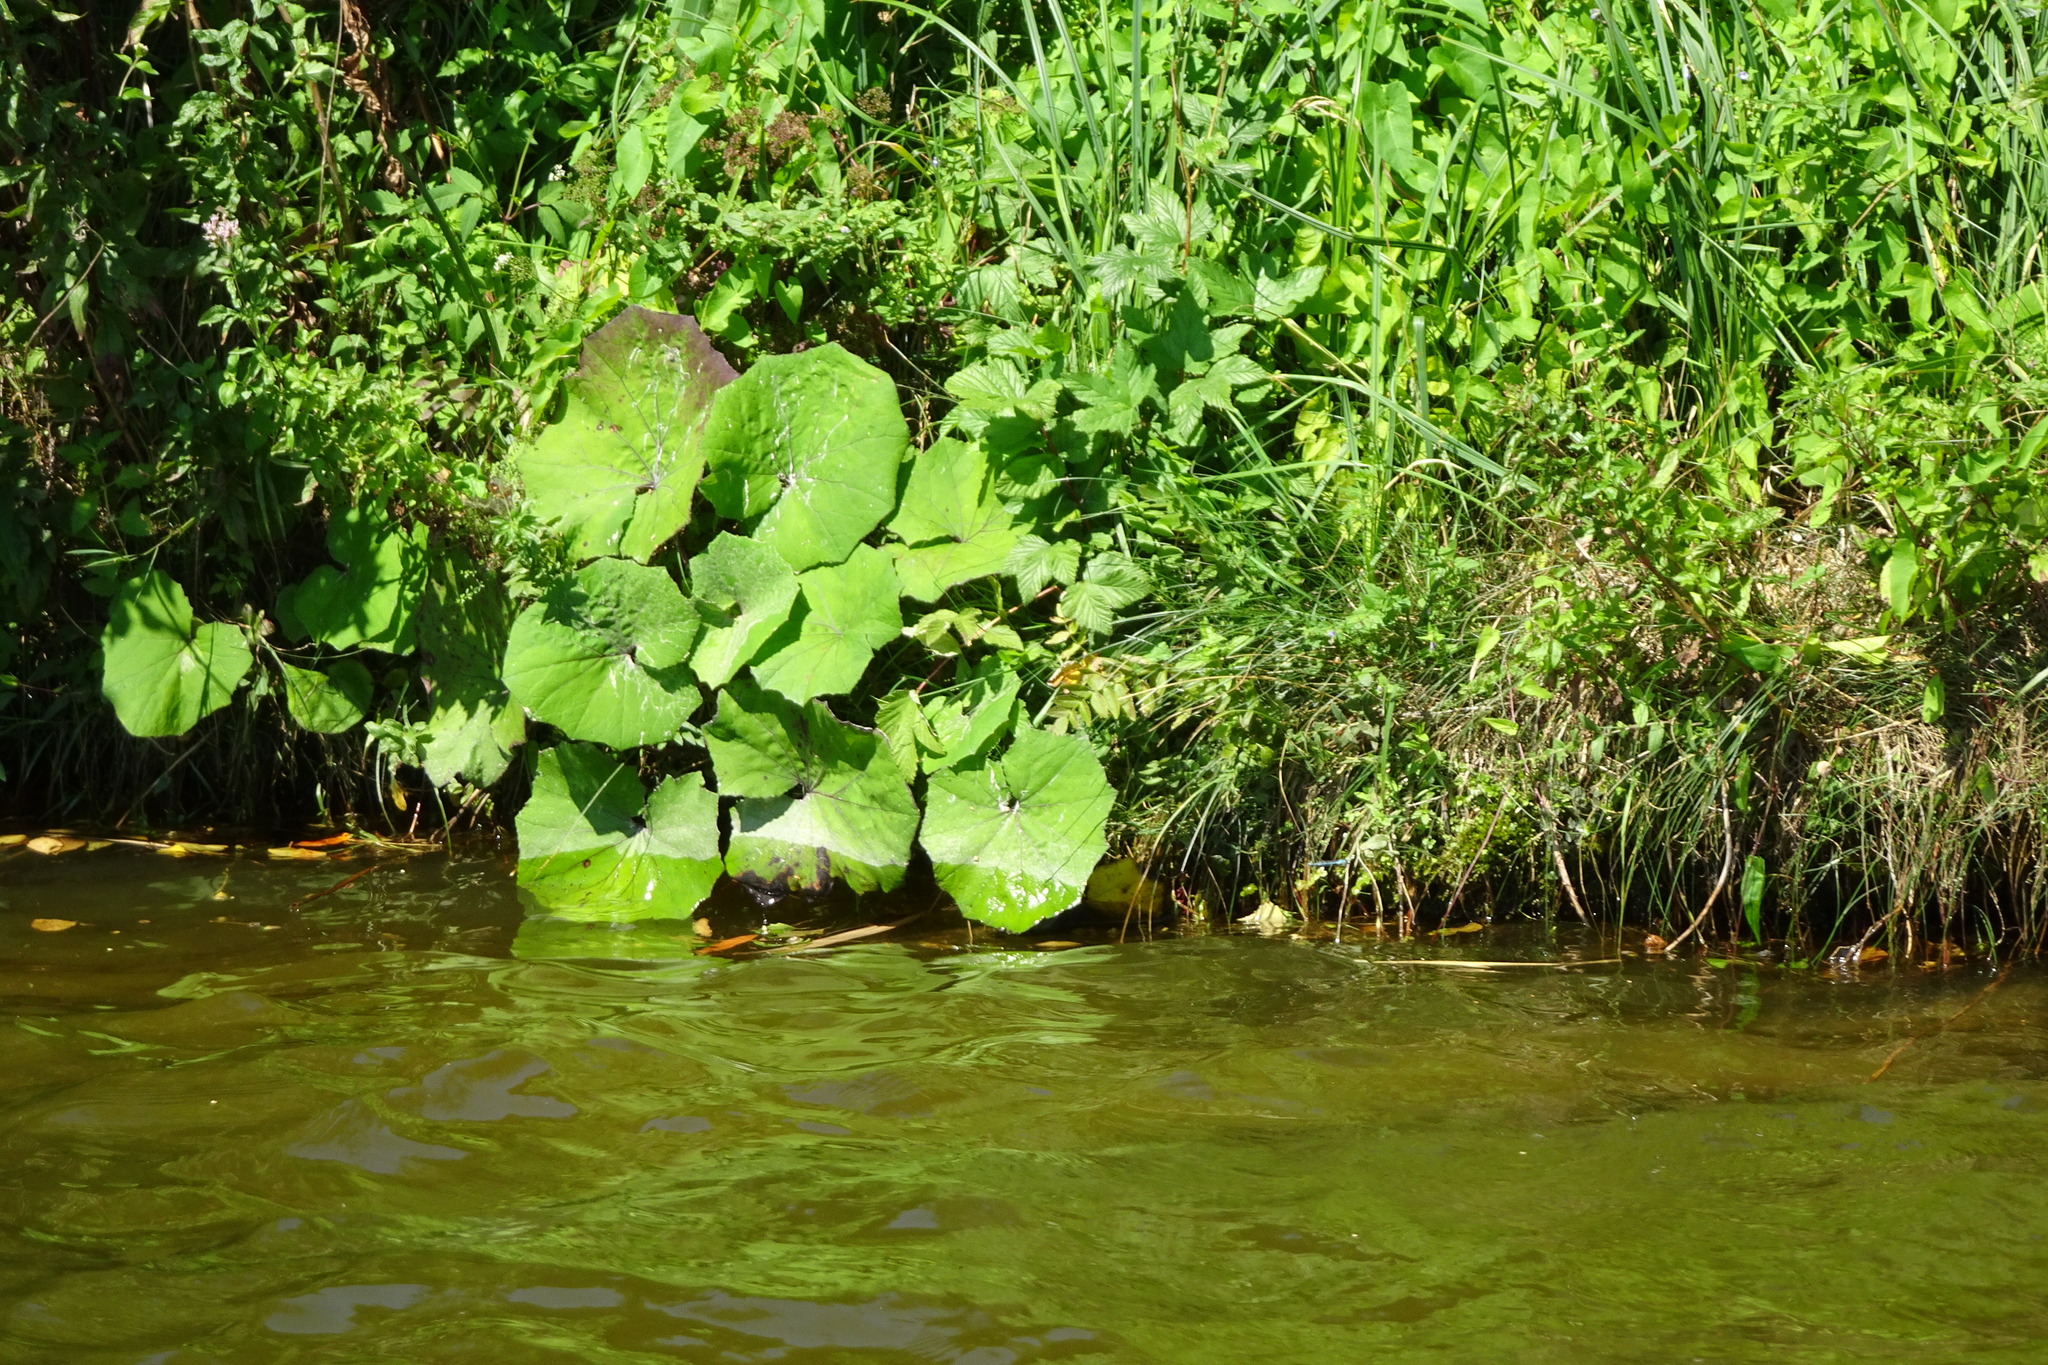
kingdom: Plantae
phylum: Tracheophyta
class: Magnoliopsida
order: Asterales
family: Asteraceae
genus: Petasites
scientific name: Petasites hybridus
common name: Butterbur
